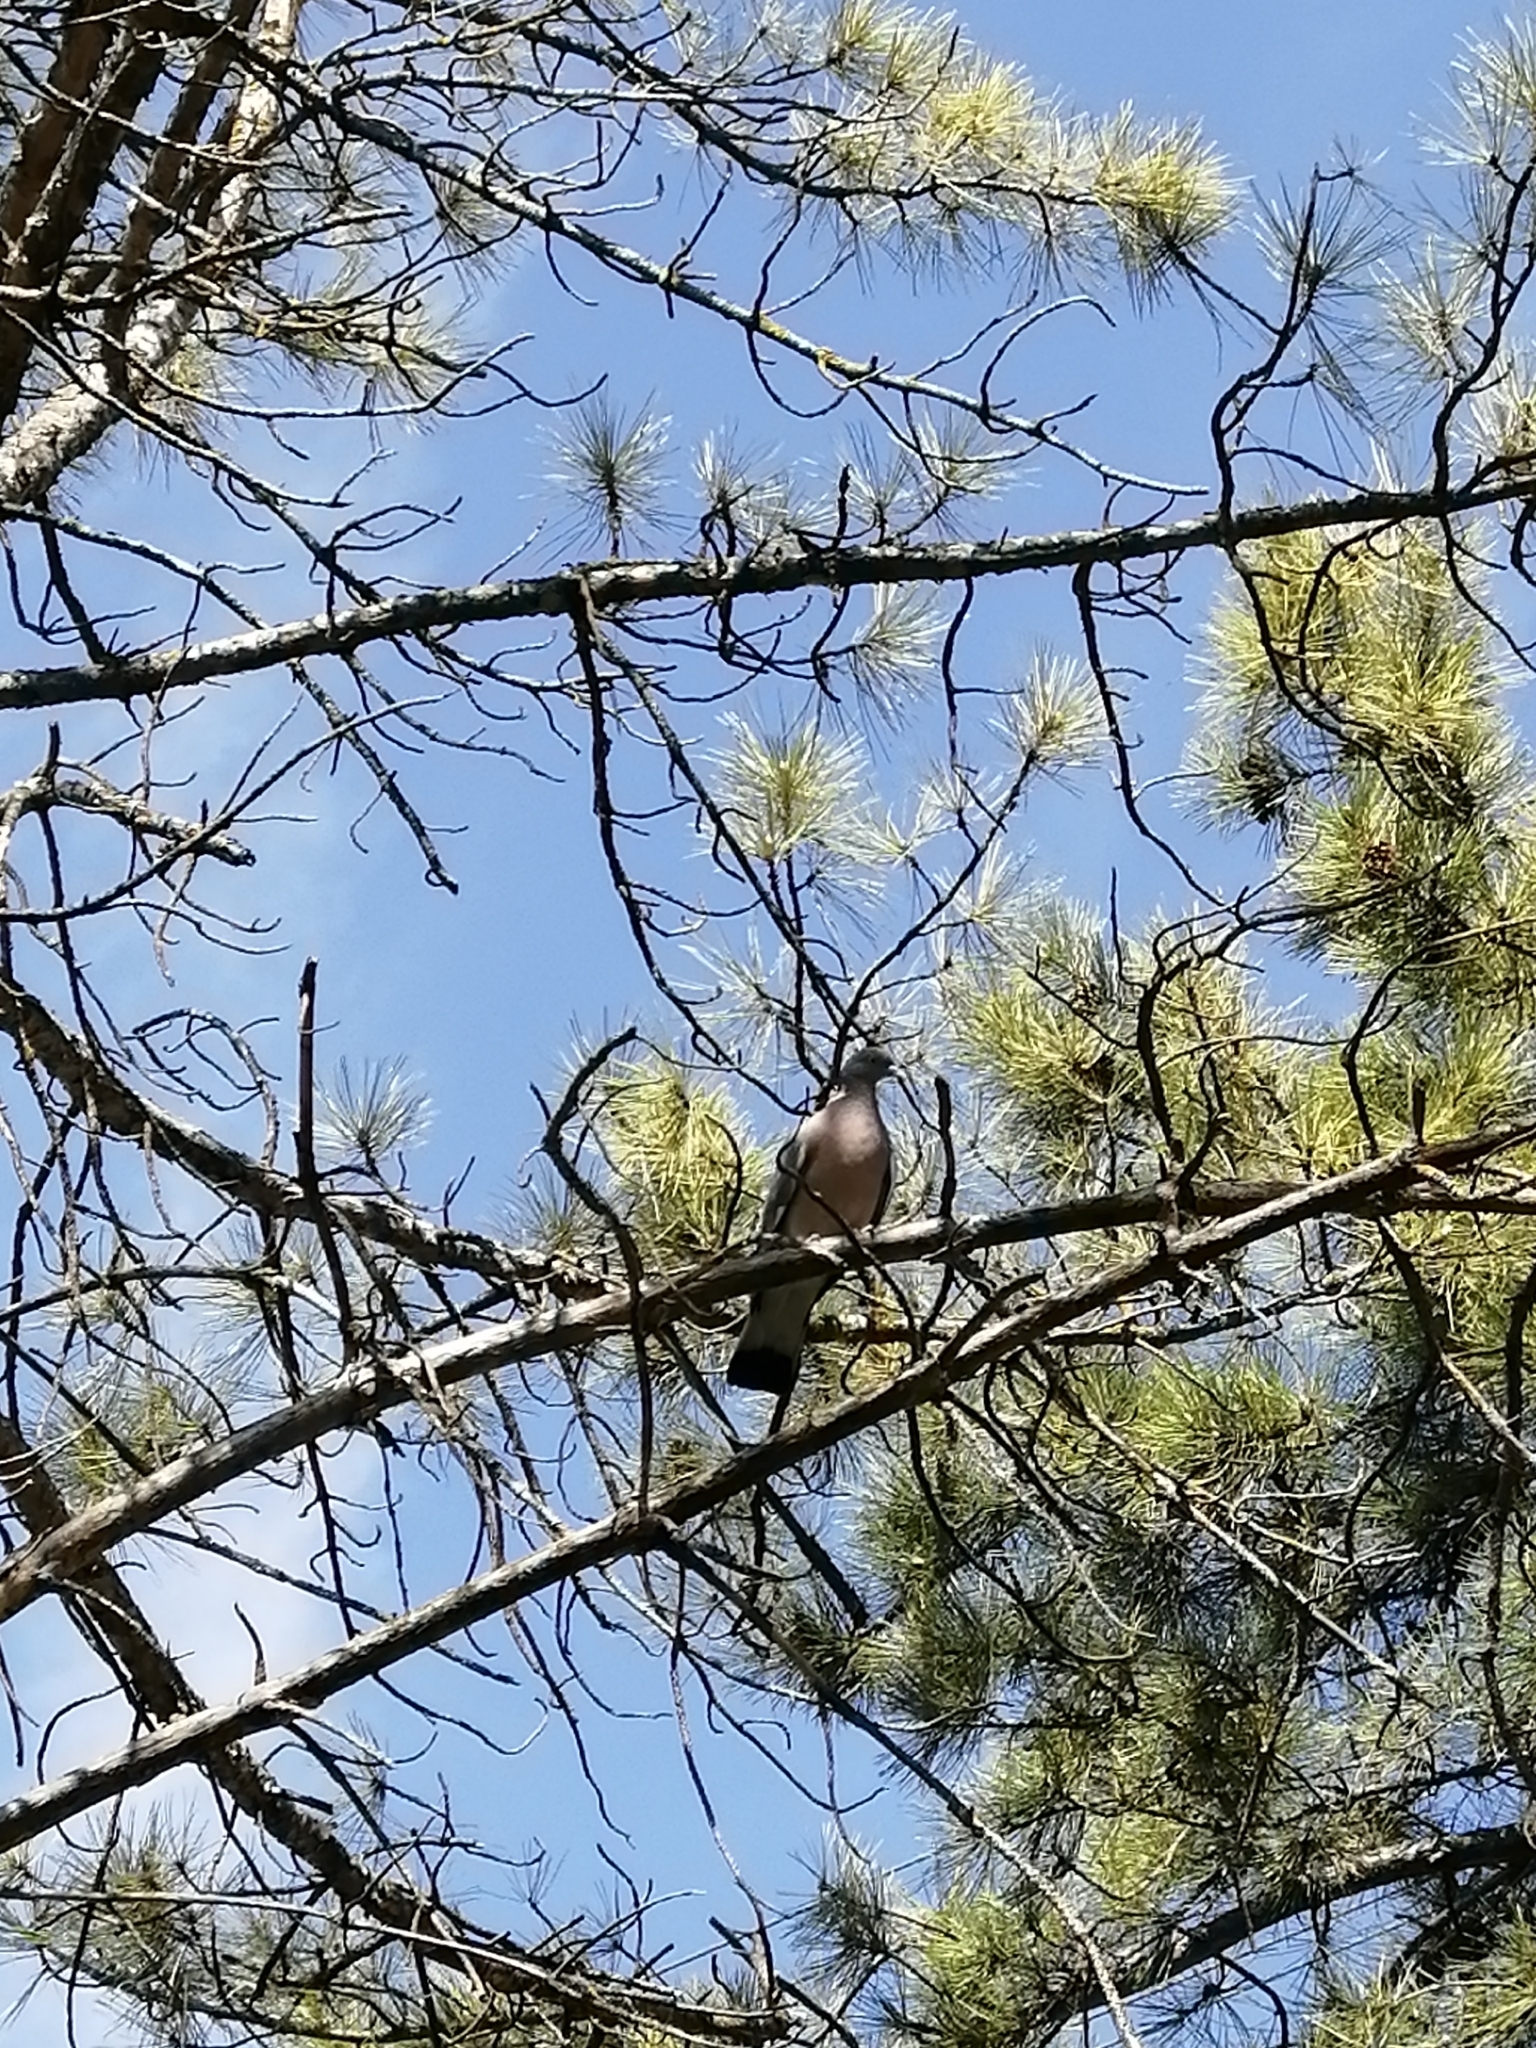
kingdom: Animalia
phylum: Chordata
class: Aves
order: Columbiformes
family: Columbidae
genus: Columba
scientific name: Columba palumbus
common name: Common wood pigeon
